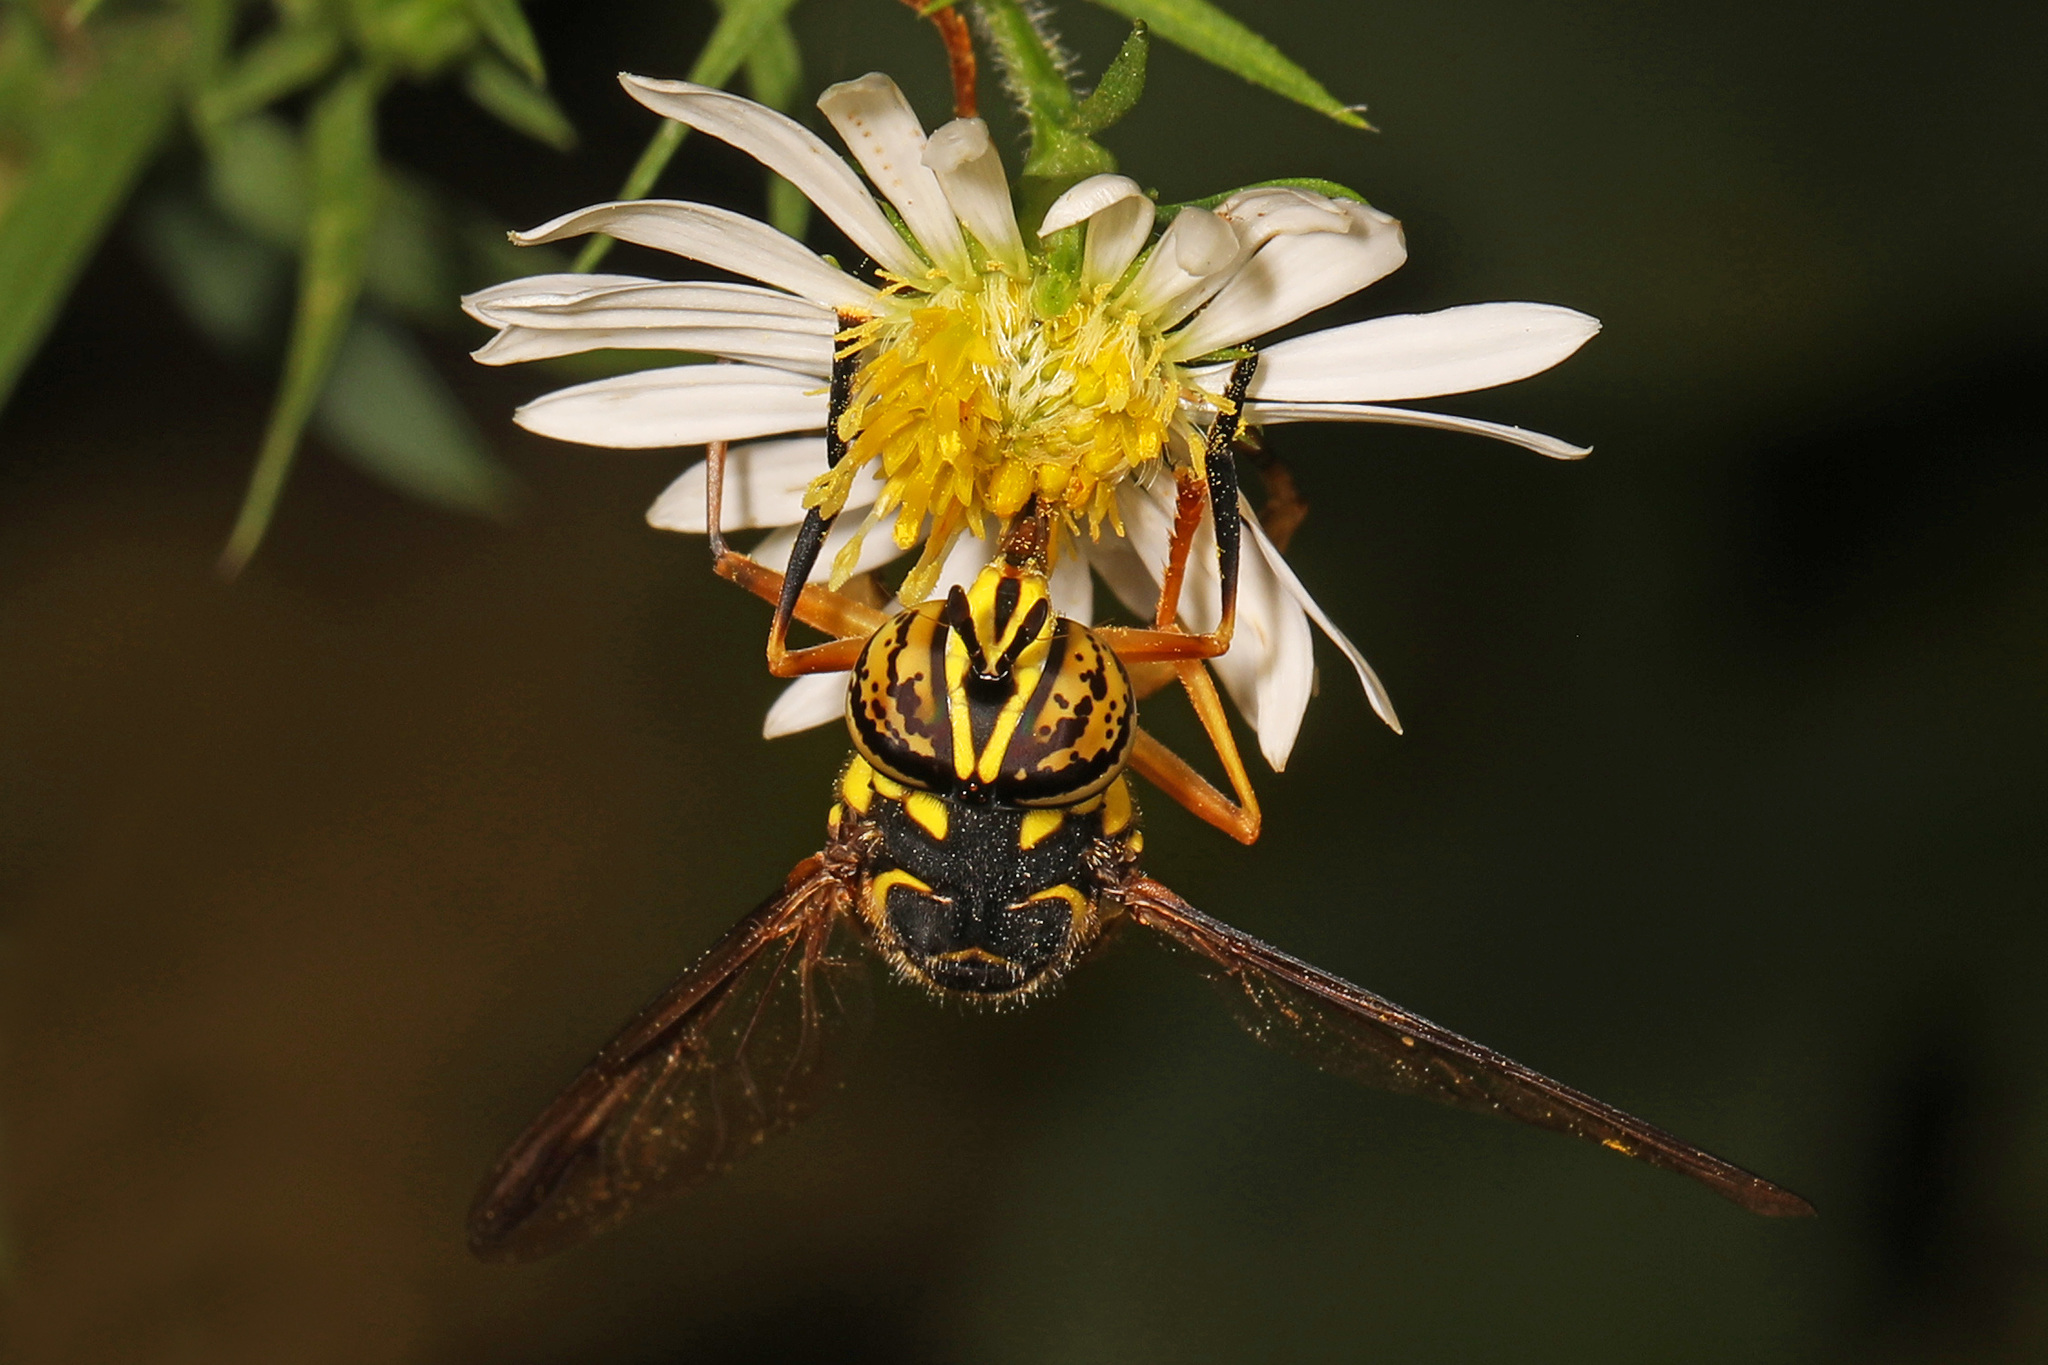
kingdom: Animalia
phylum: Arthropoda
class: Insecta
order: Diptera
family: Syrphidae
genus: Spilomyia
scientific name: Spilomyia longicornis
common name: Eastern hornet fly
